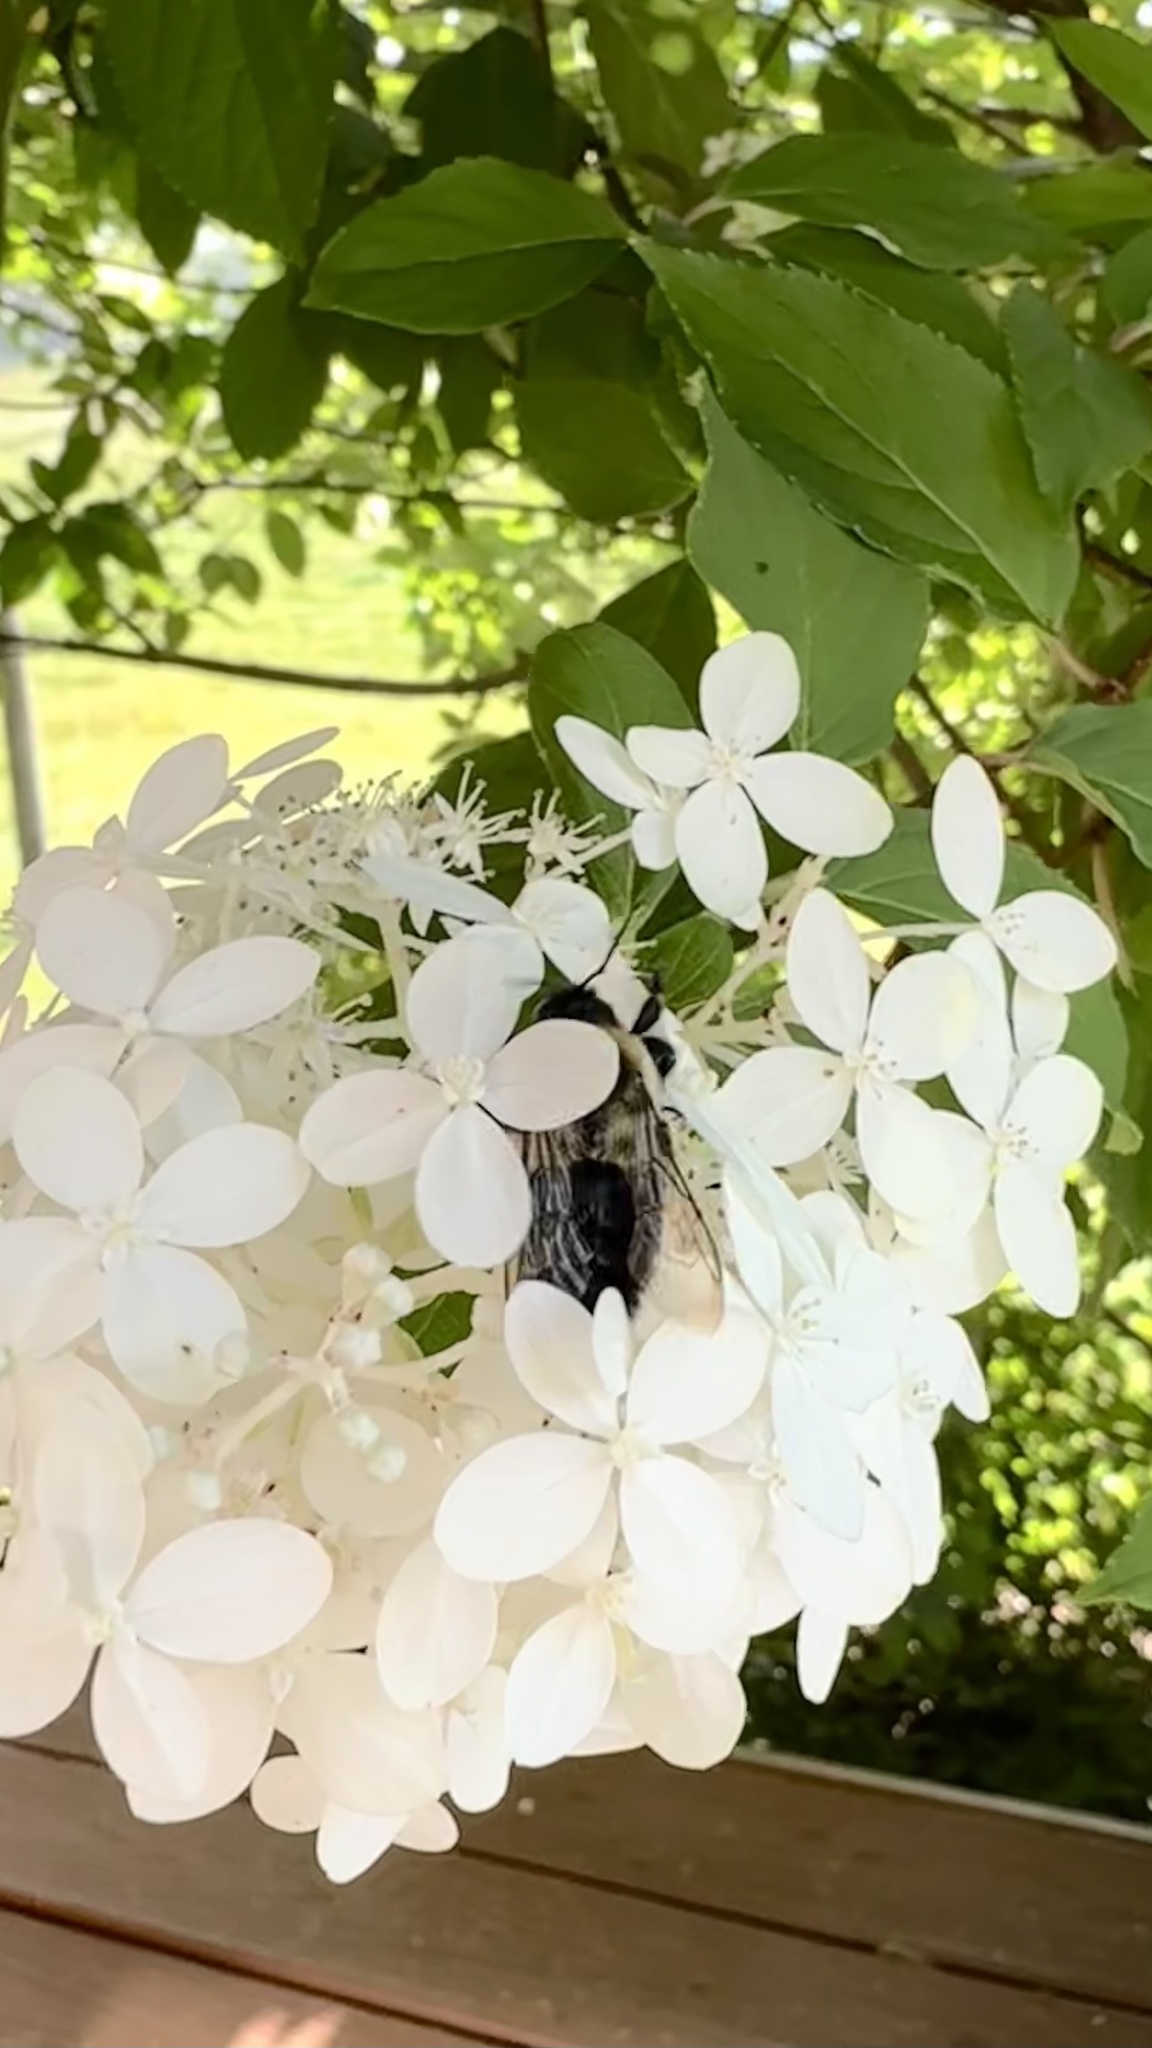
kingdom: Animalia
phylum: Arthropoda
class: Insecta
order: Hymenoptera
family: Apidae
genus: Bombus
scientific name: Bombus impatiens
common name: Common eastern bumble bee
